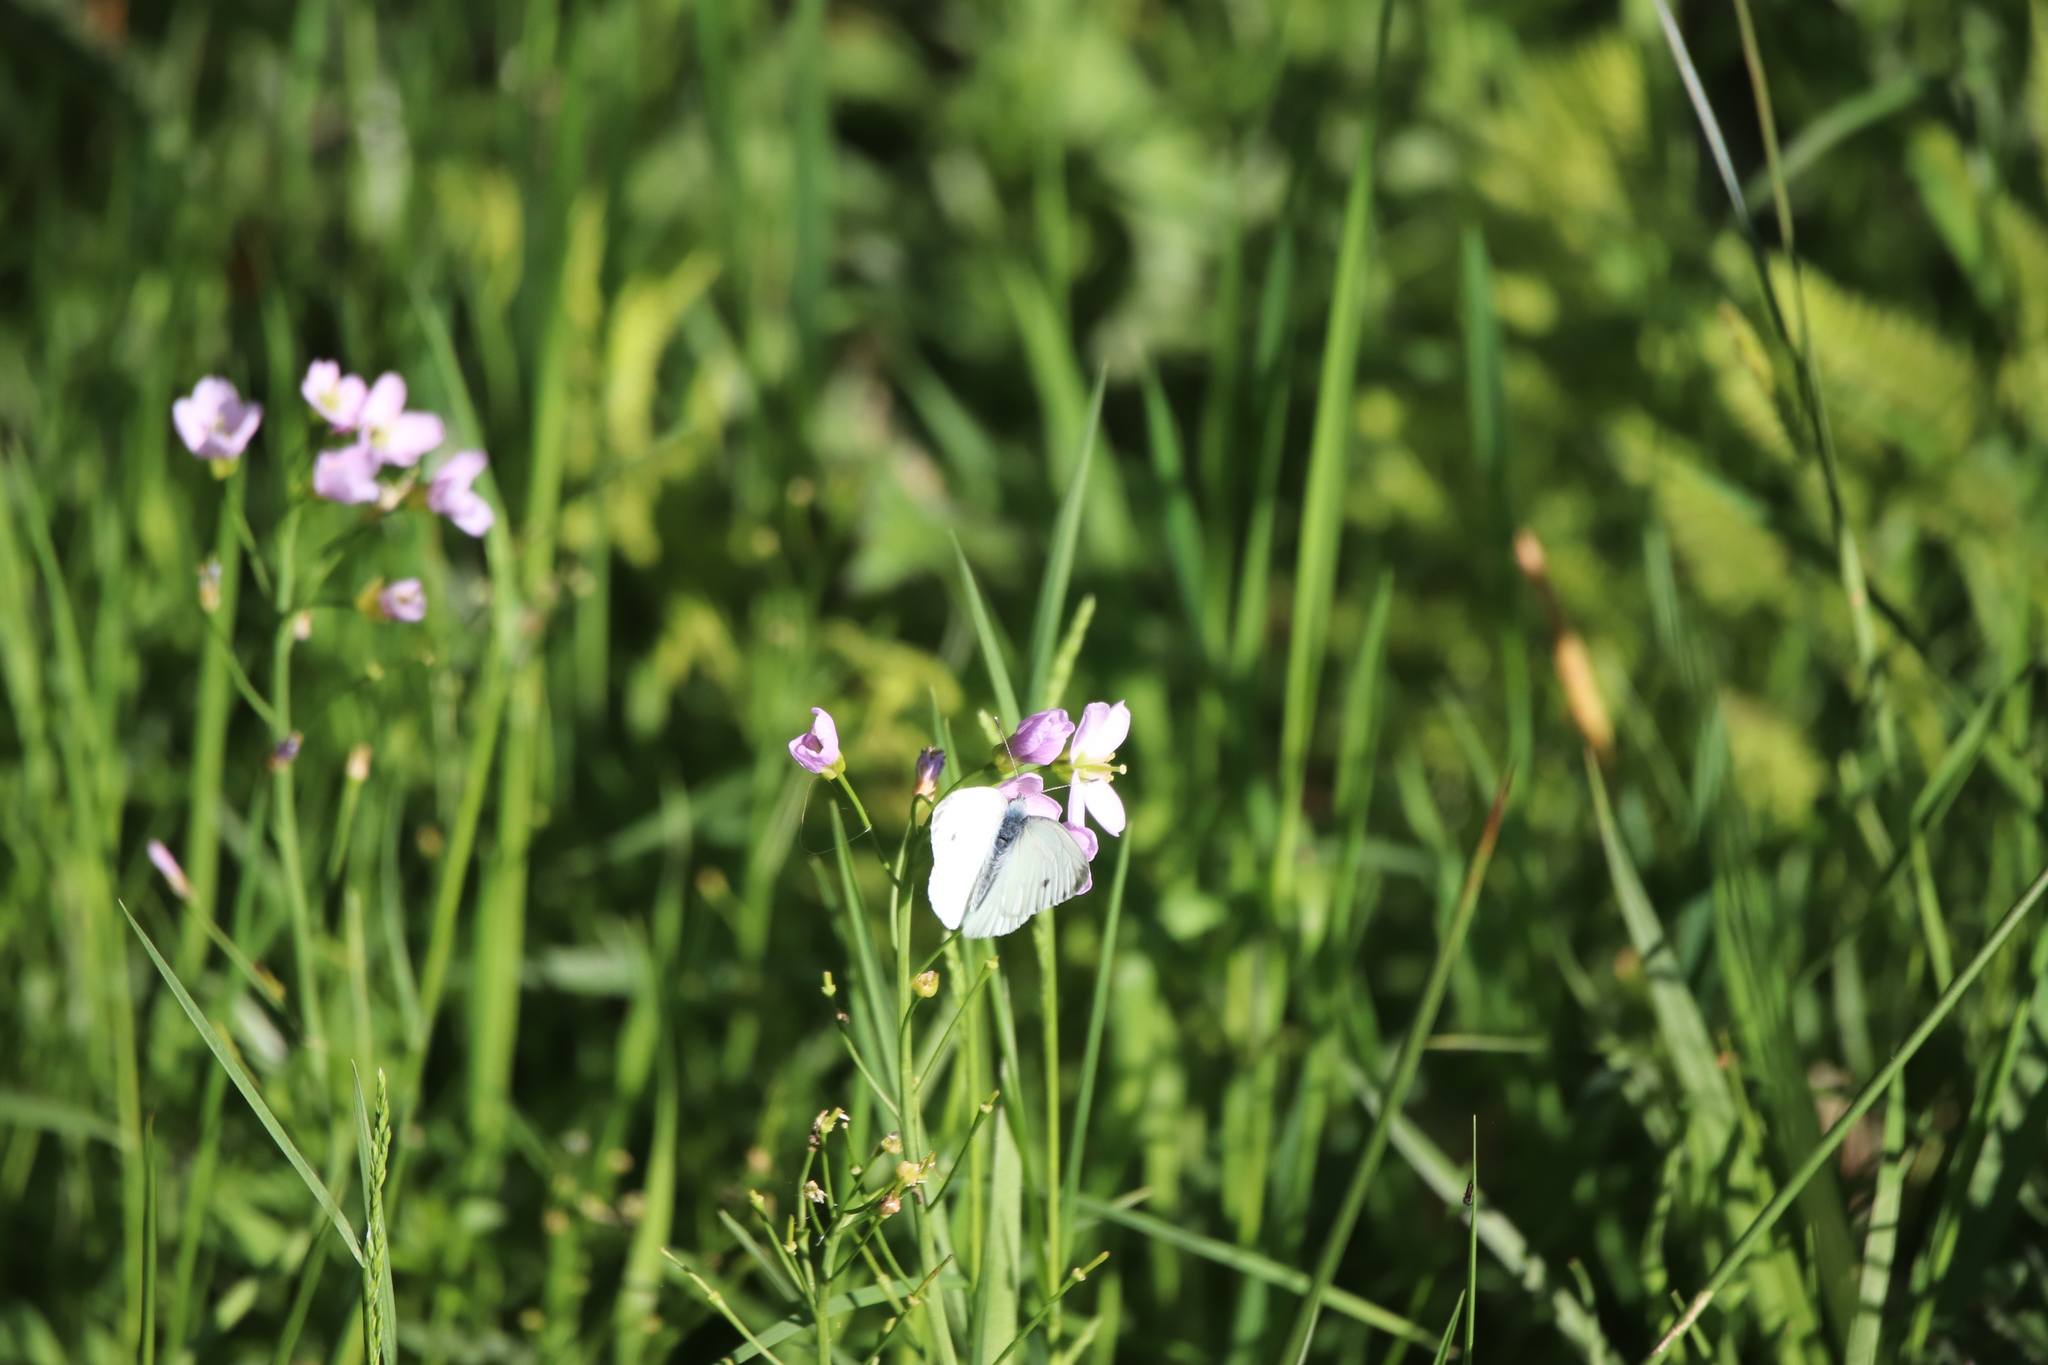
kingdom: Animalia
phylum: Arthropoda
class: Insecta
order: Lepidoptera
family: Pieridae
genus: Pieris
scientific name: Pieris napi
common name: Green-veined white
